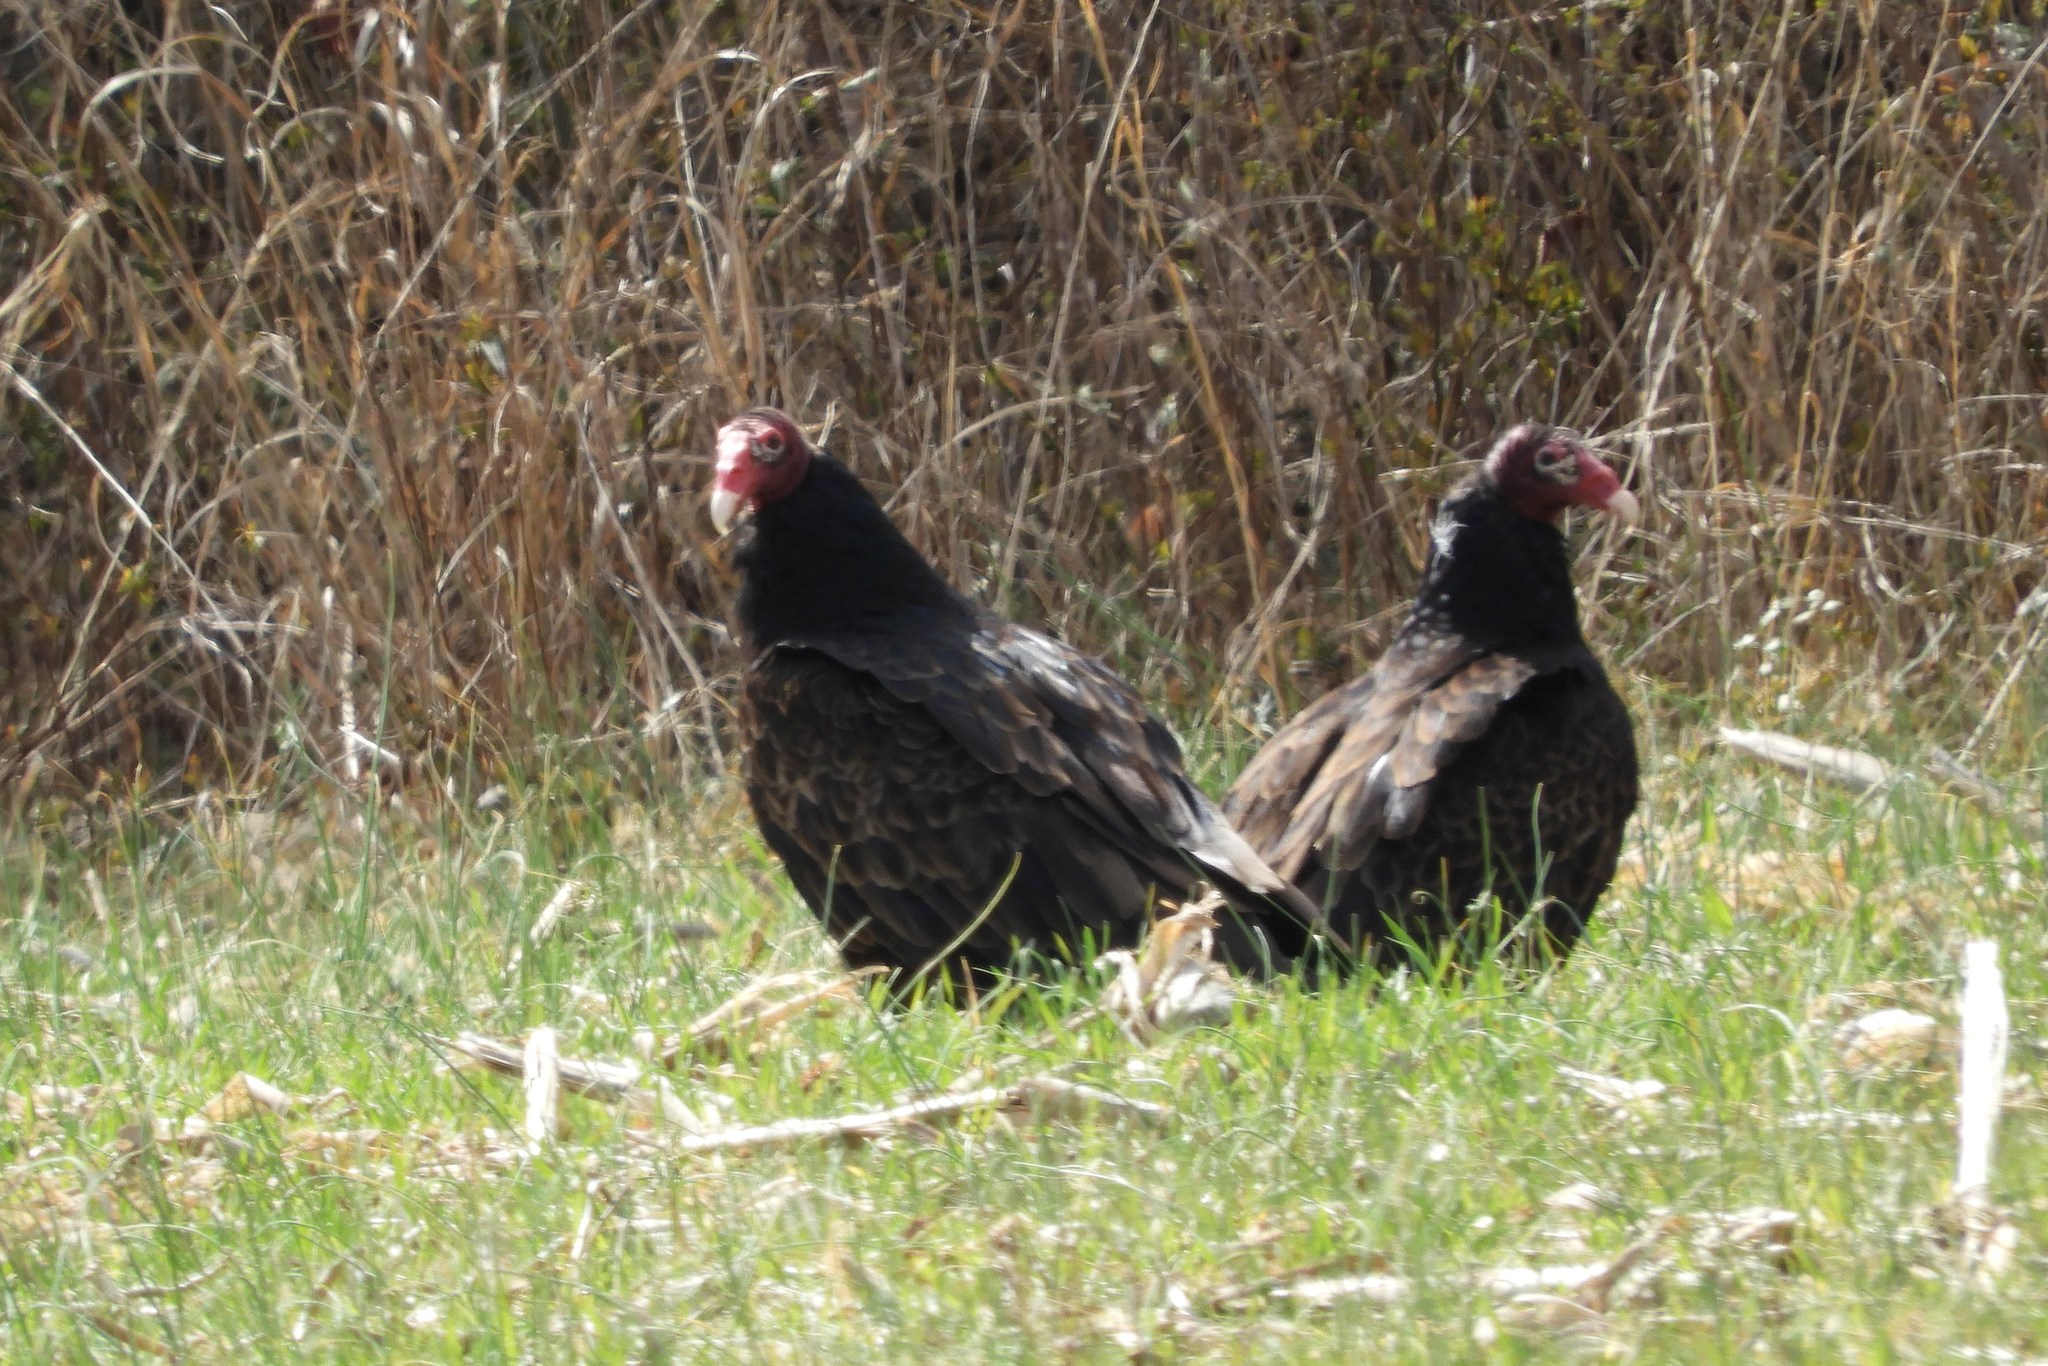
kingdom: Animalia
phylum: Chordata
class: Aves
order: Accipitriformes
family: Cathartidae
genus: Cathartes
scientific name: Cathartes aura
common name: Turkey vulture
